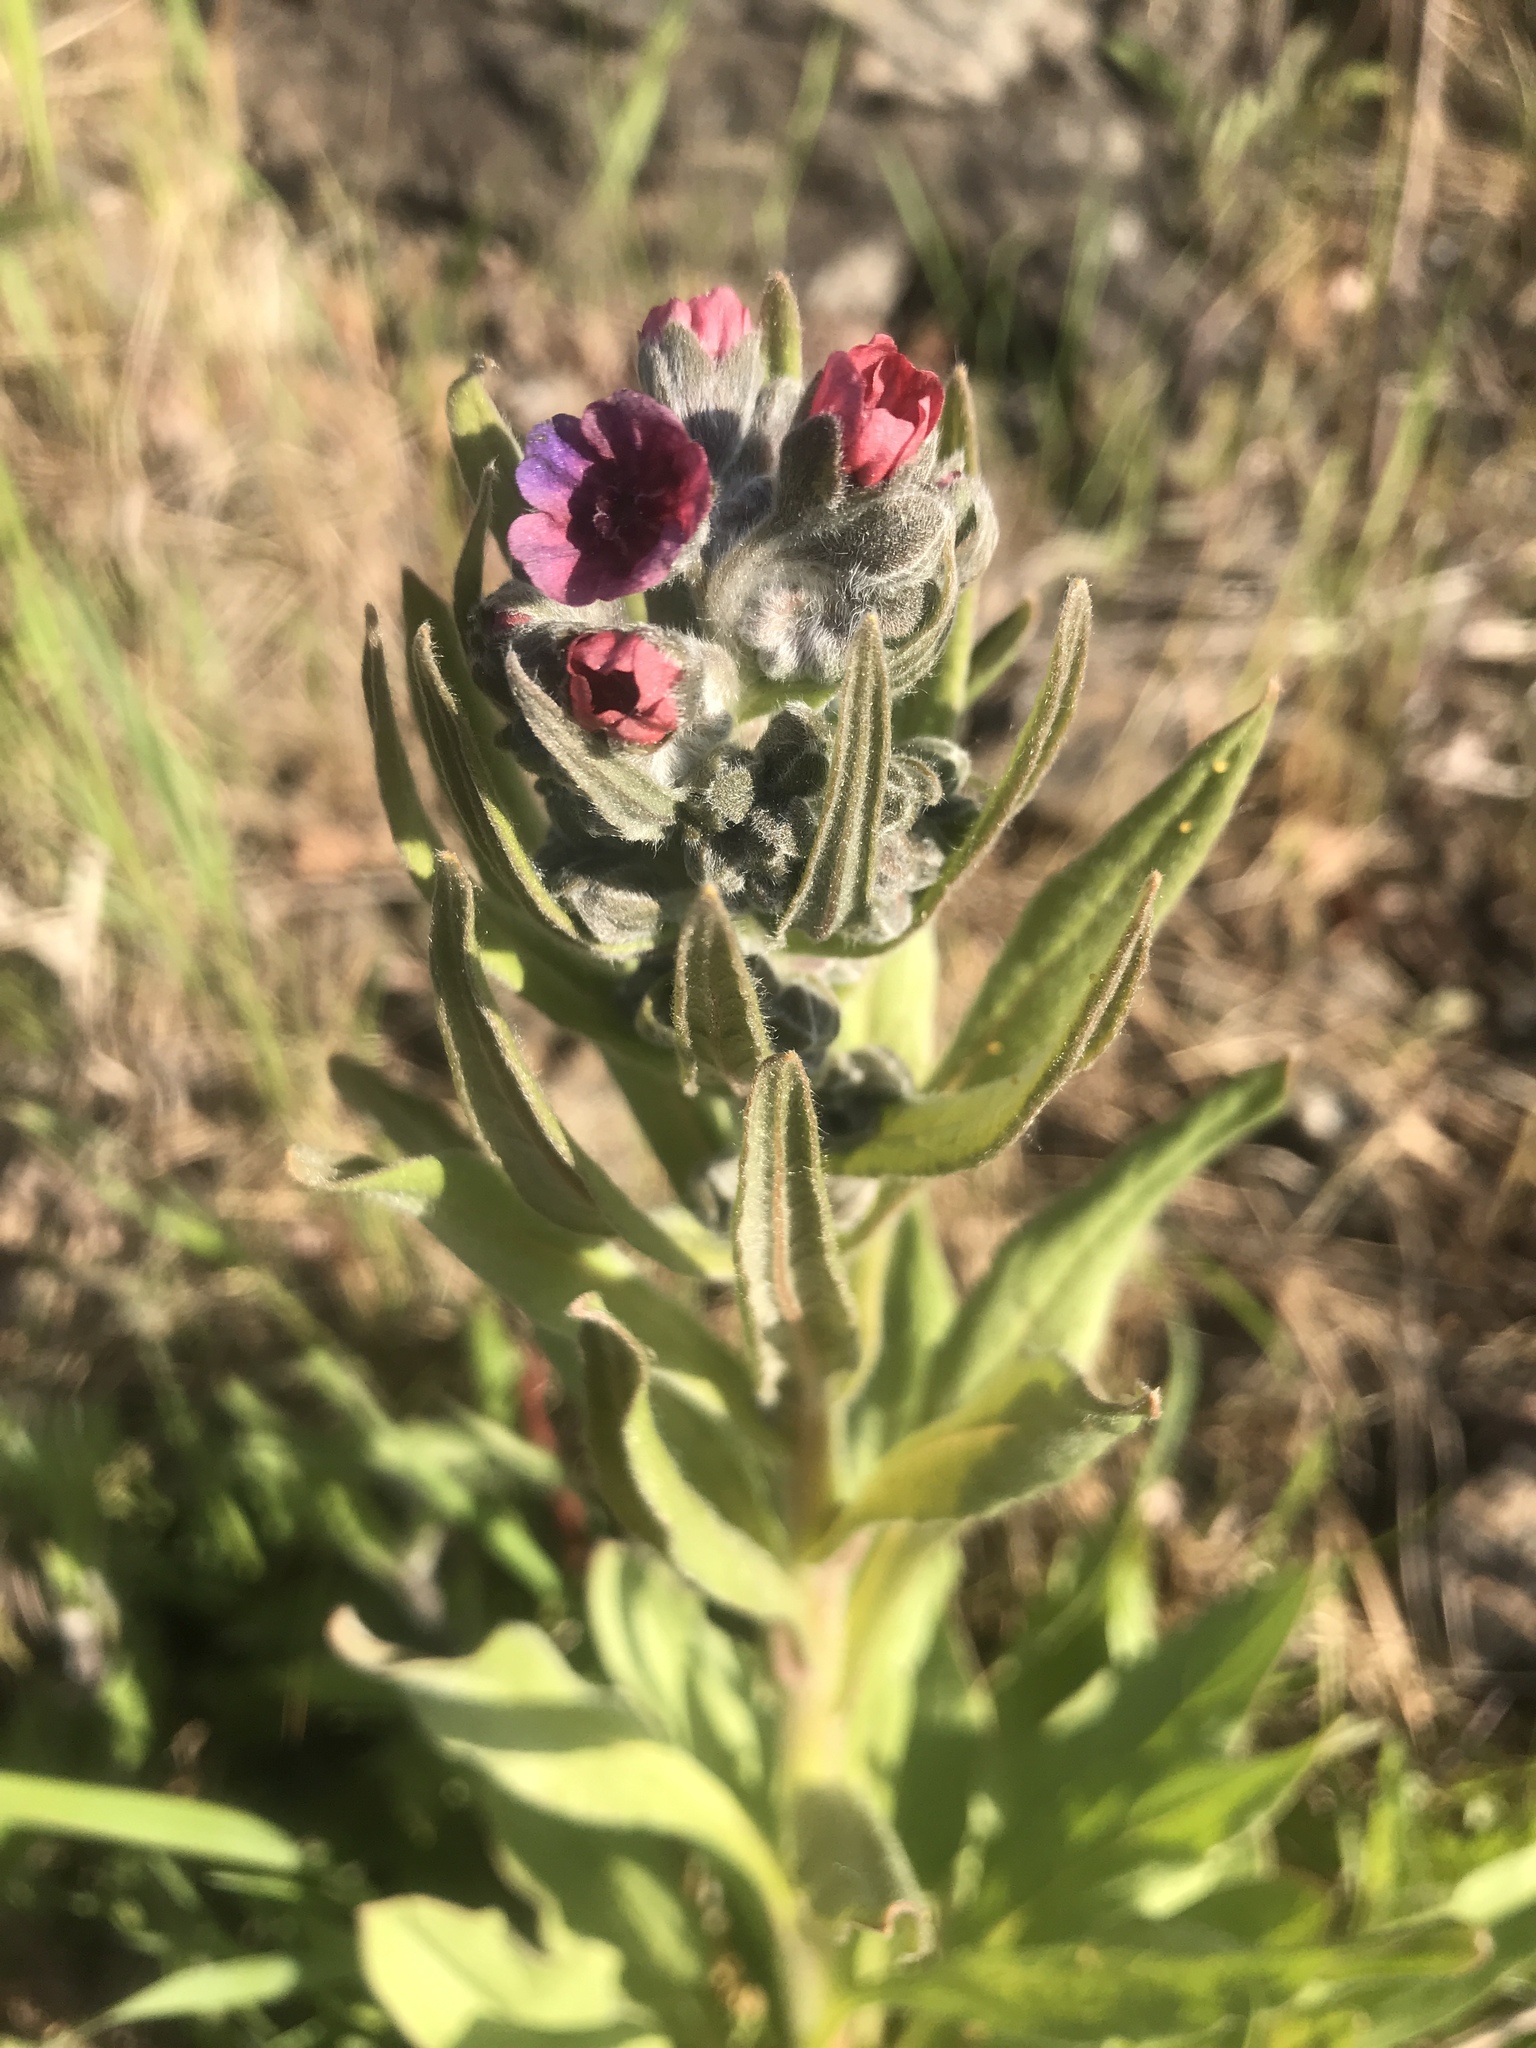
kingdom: Plantae
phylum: Tracheophyta
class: Magnoliopsida
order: Boraginales
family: Boraginaceae
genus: Cynoglossum
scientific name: Cynoglossum officinale
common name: Hound's-tongue
